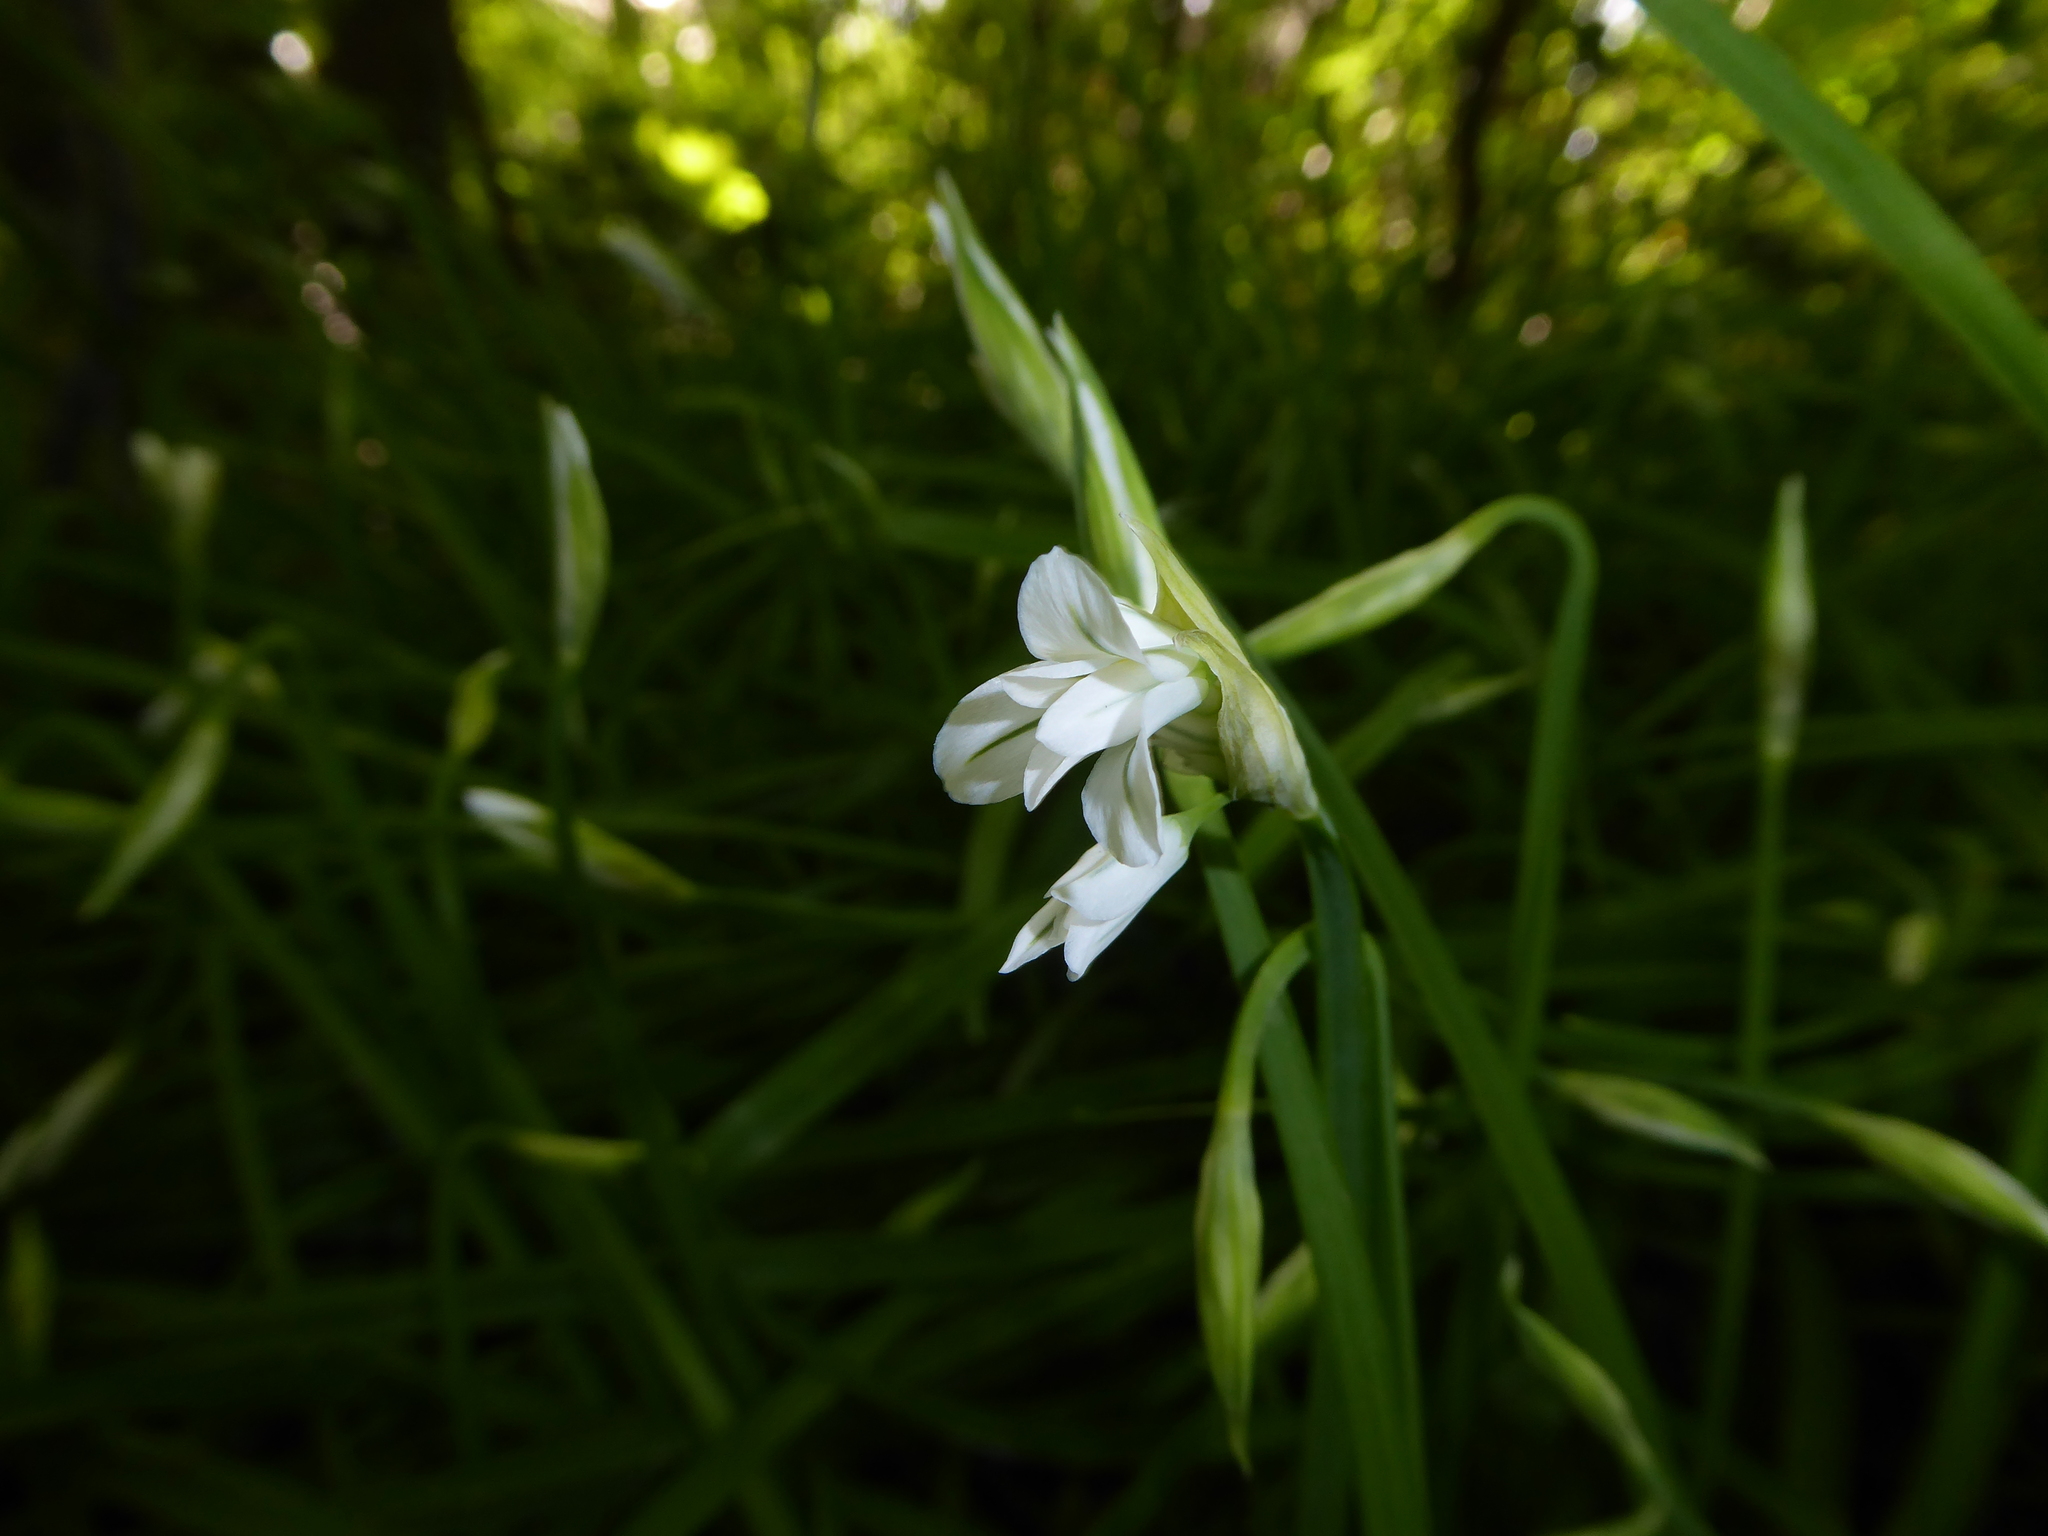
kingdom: Plantae
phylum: Tracheophyta
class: Liliopsida
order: Asparagales
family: Amaryllidaceae
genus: Allium
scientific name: Allium triquetrum
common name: Three-cornered garlic
